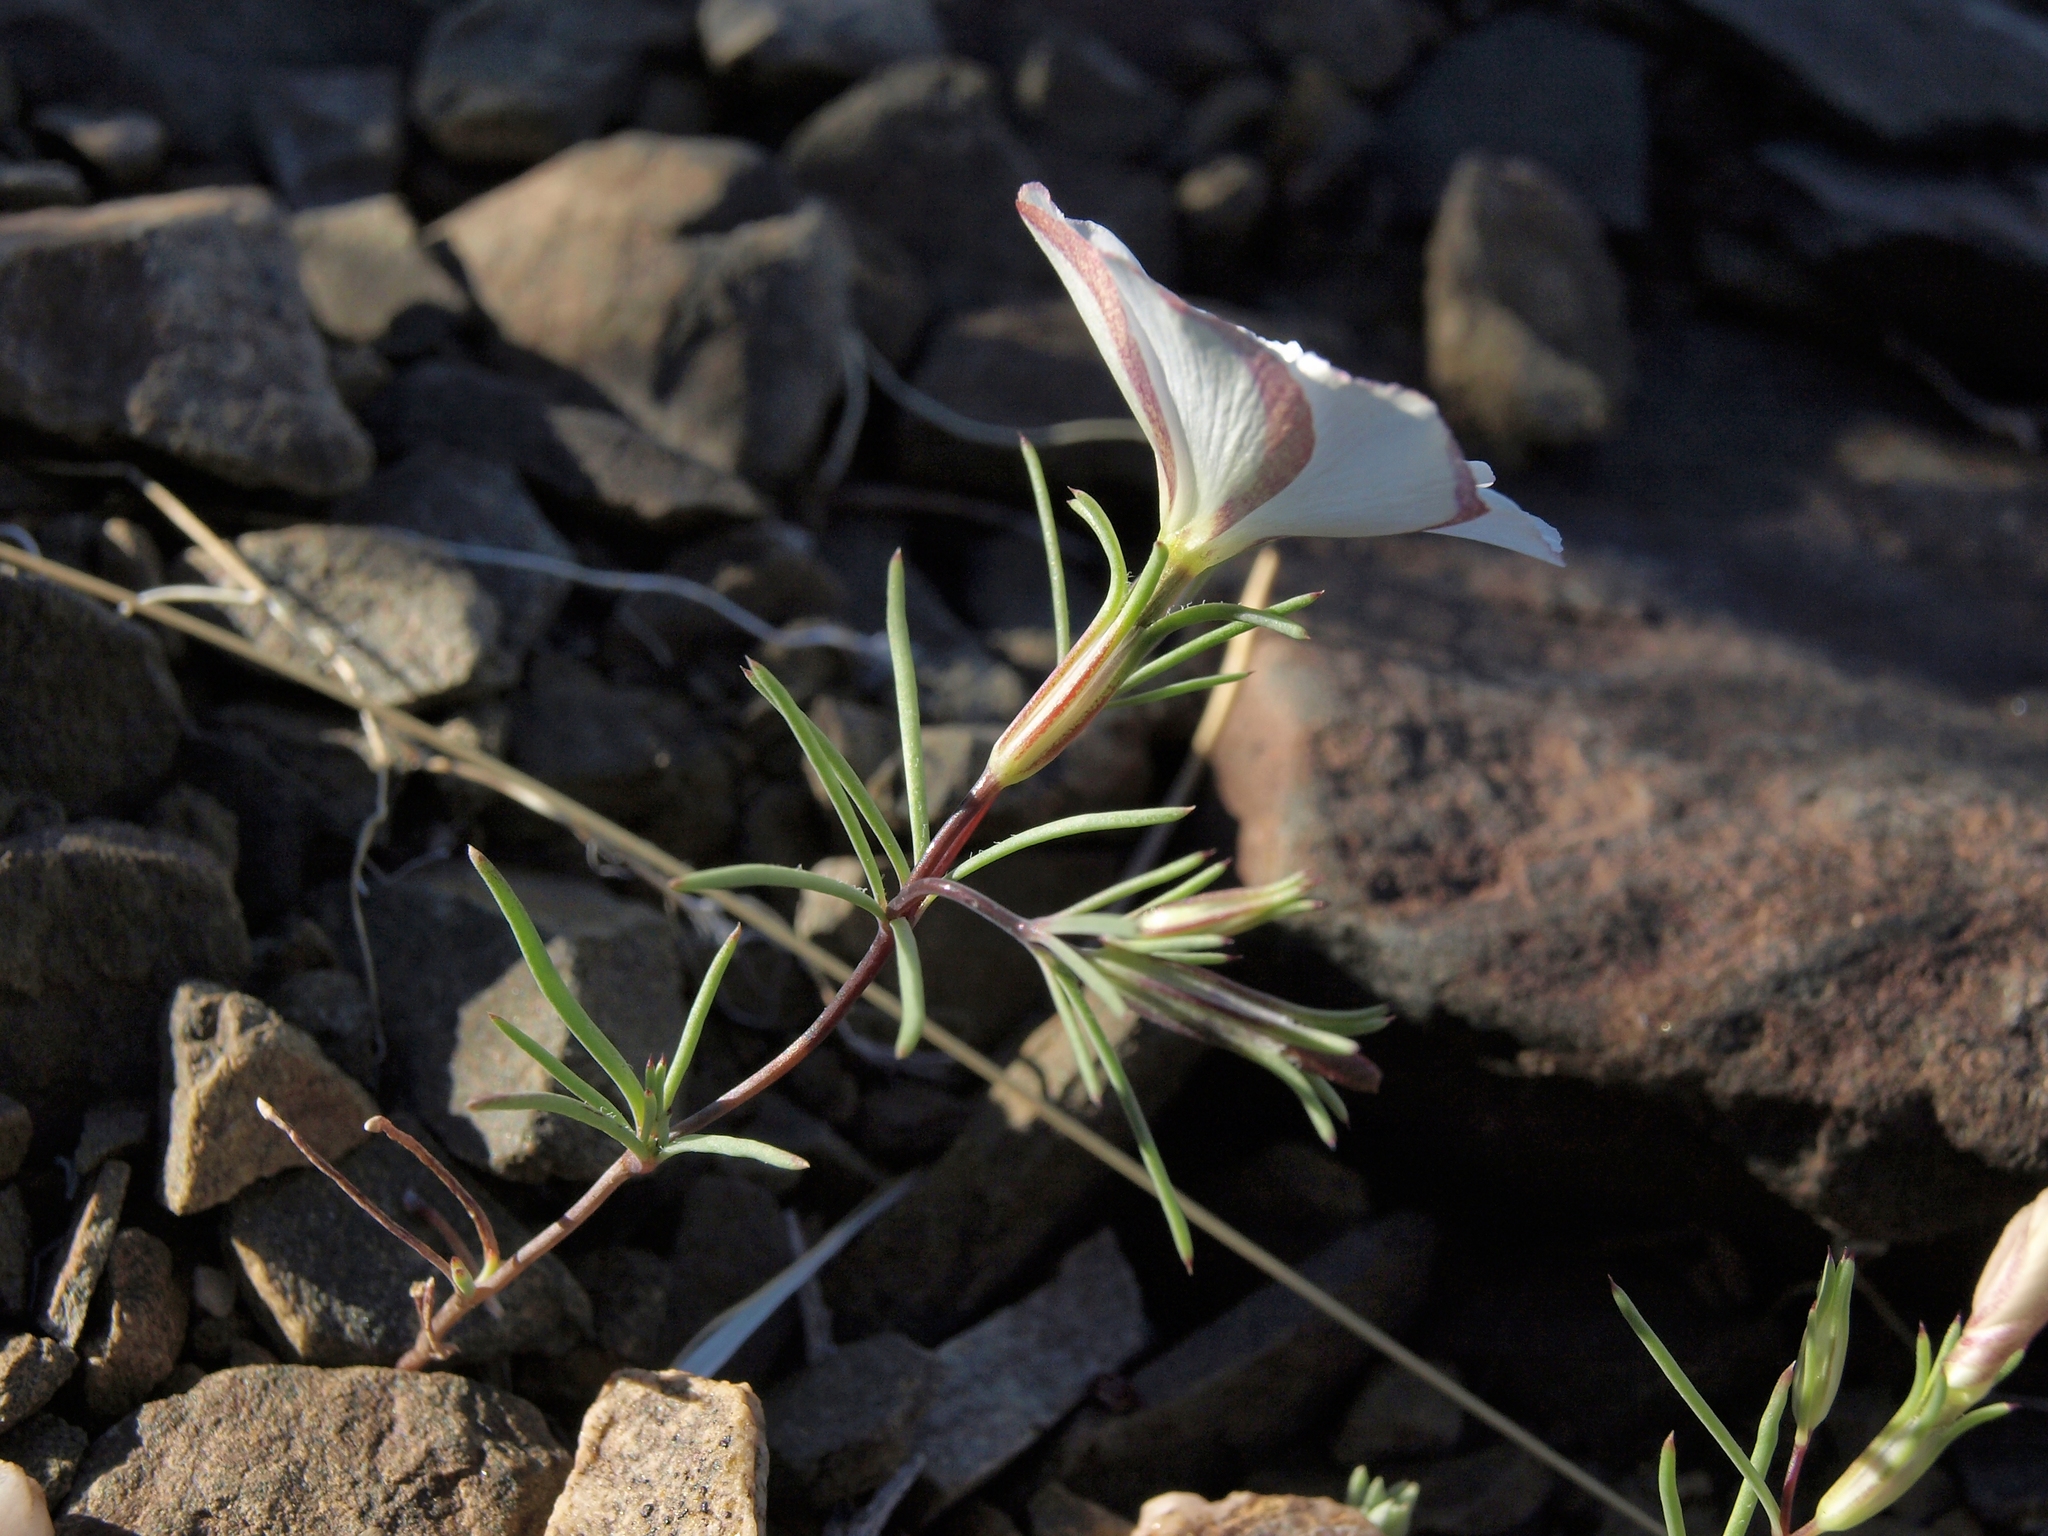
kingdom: Plantae
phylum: Tracheophyta
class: Magnoliopsida
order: Ericales
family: Polemoniaceae
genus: Linanthus
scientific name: Linanthus dichotomus
